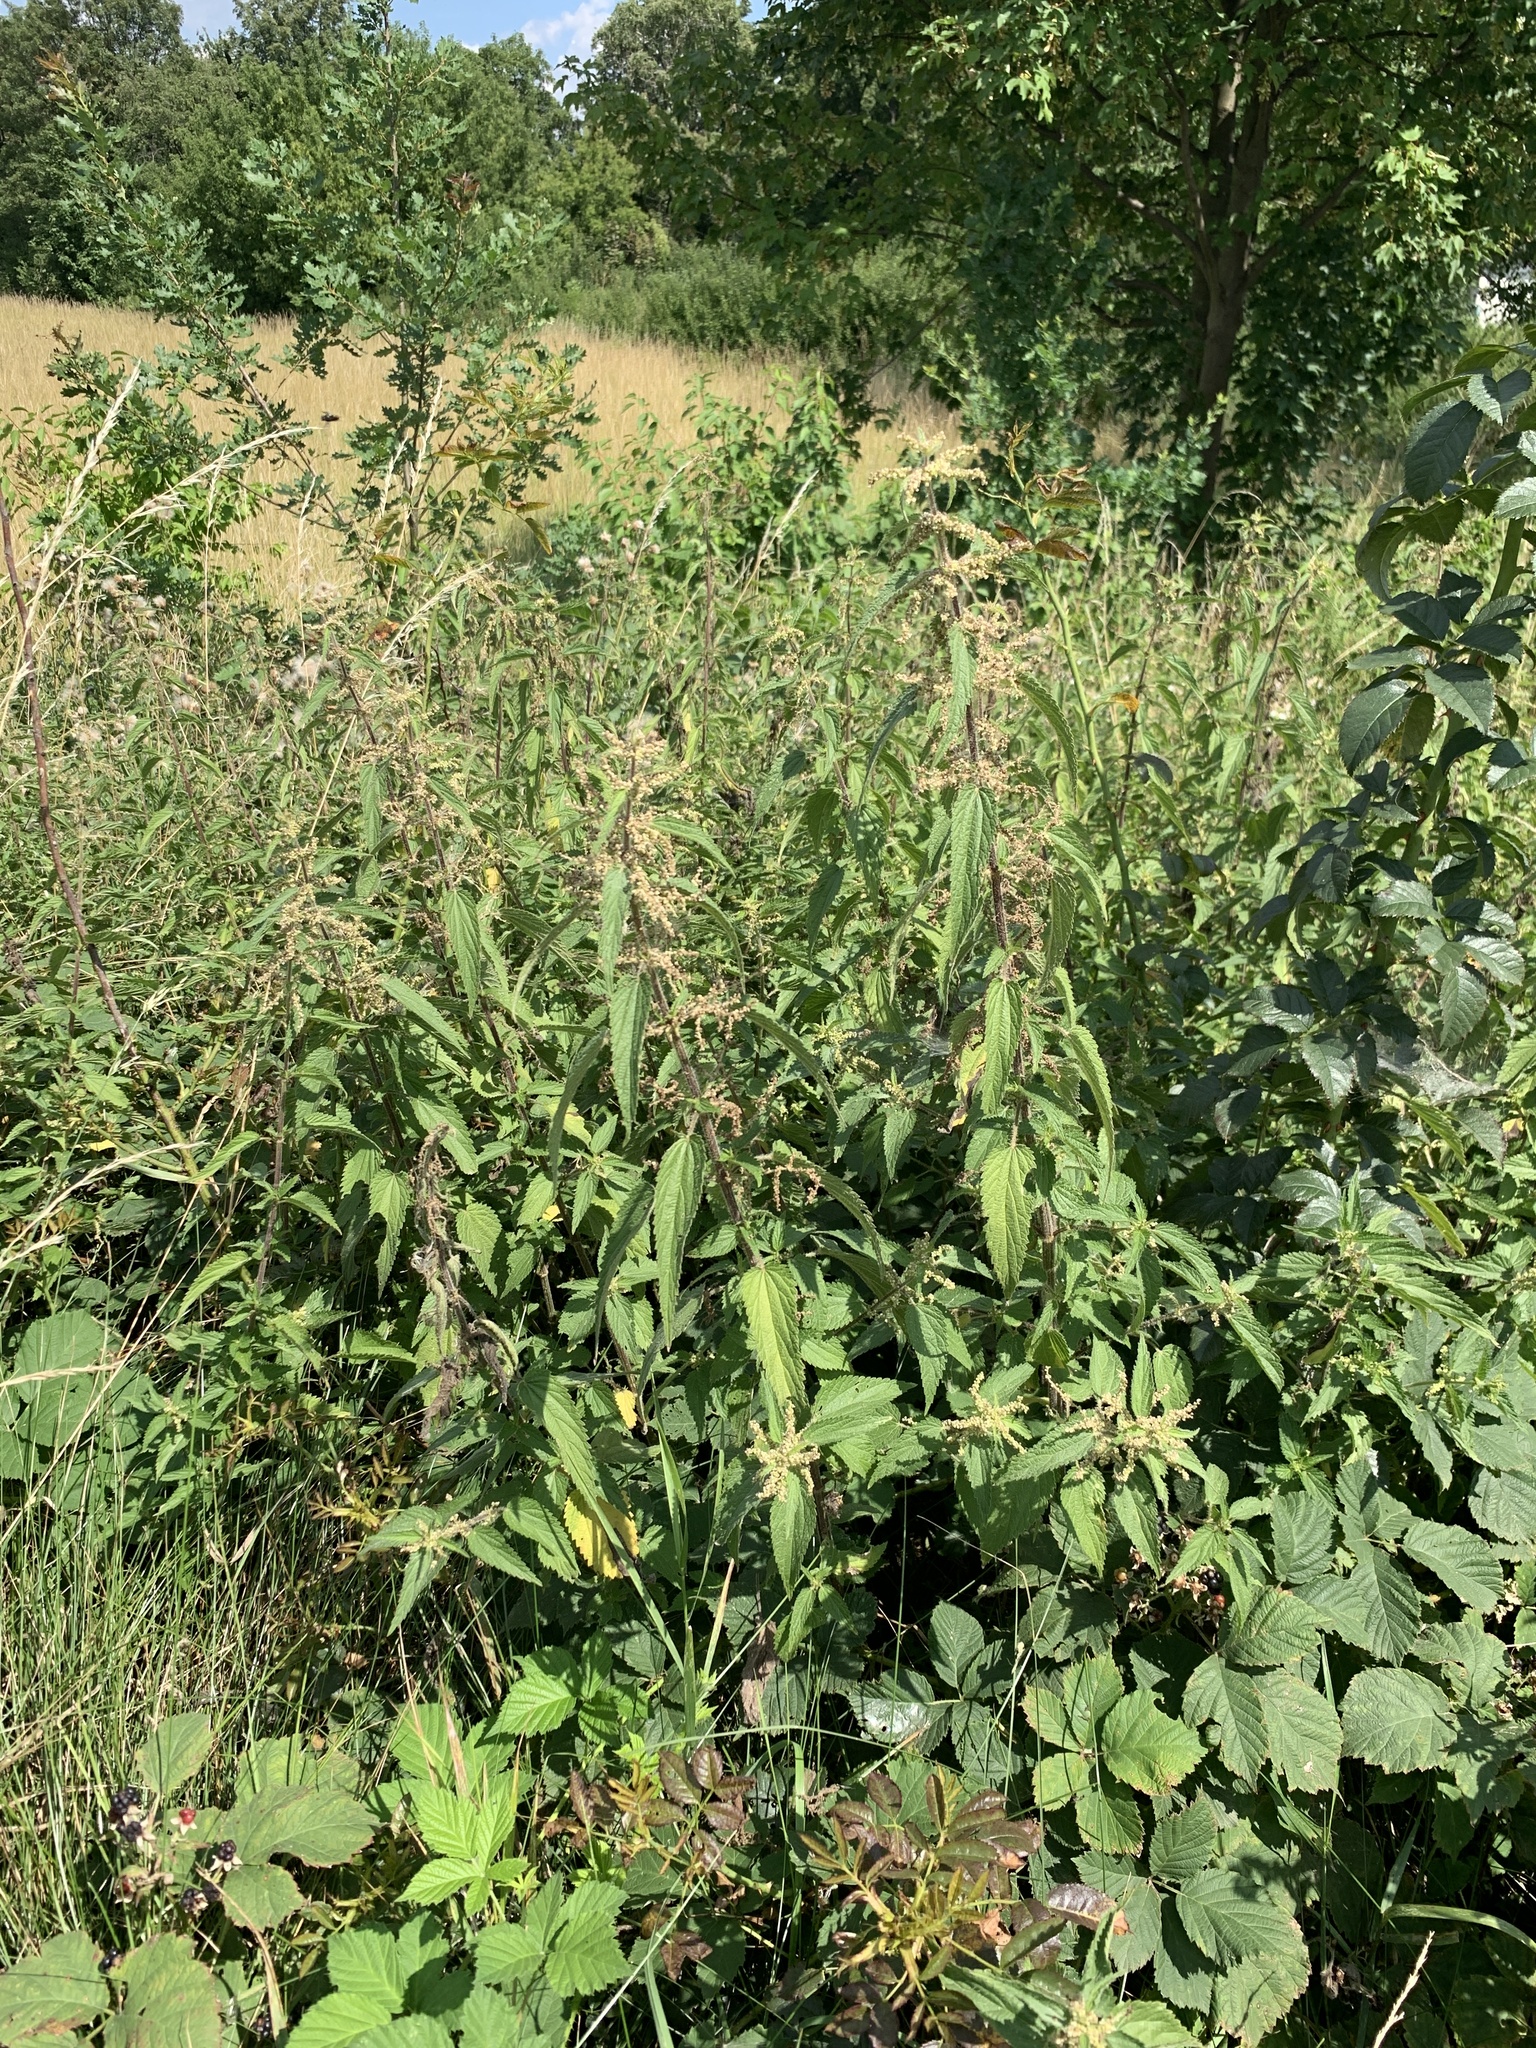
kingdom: Plantae
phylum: Tracheophyta
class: Magnoliopsida
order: Rosales
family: Urticaceae
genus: Urtica
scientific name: Urtica dioica
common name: Common nettle
